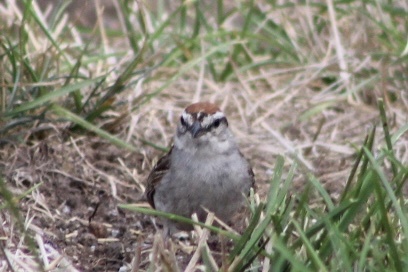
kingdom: Animalia
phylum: Chordata
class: Aves
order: Passeriformes
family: Passerellidae
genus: Spizella
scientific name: Spizella passerina
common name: Chipping sparrow
